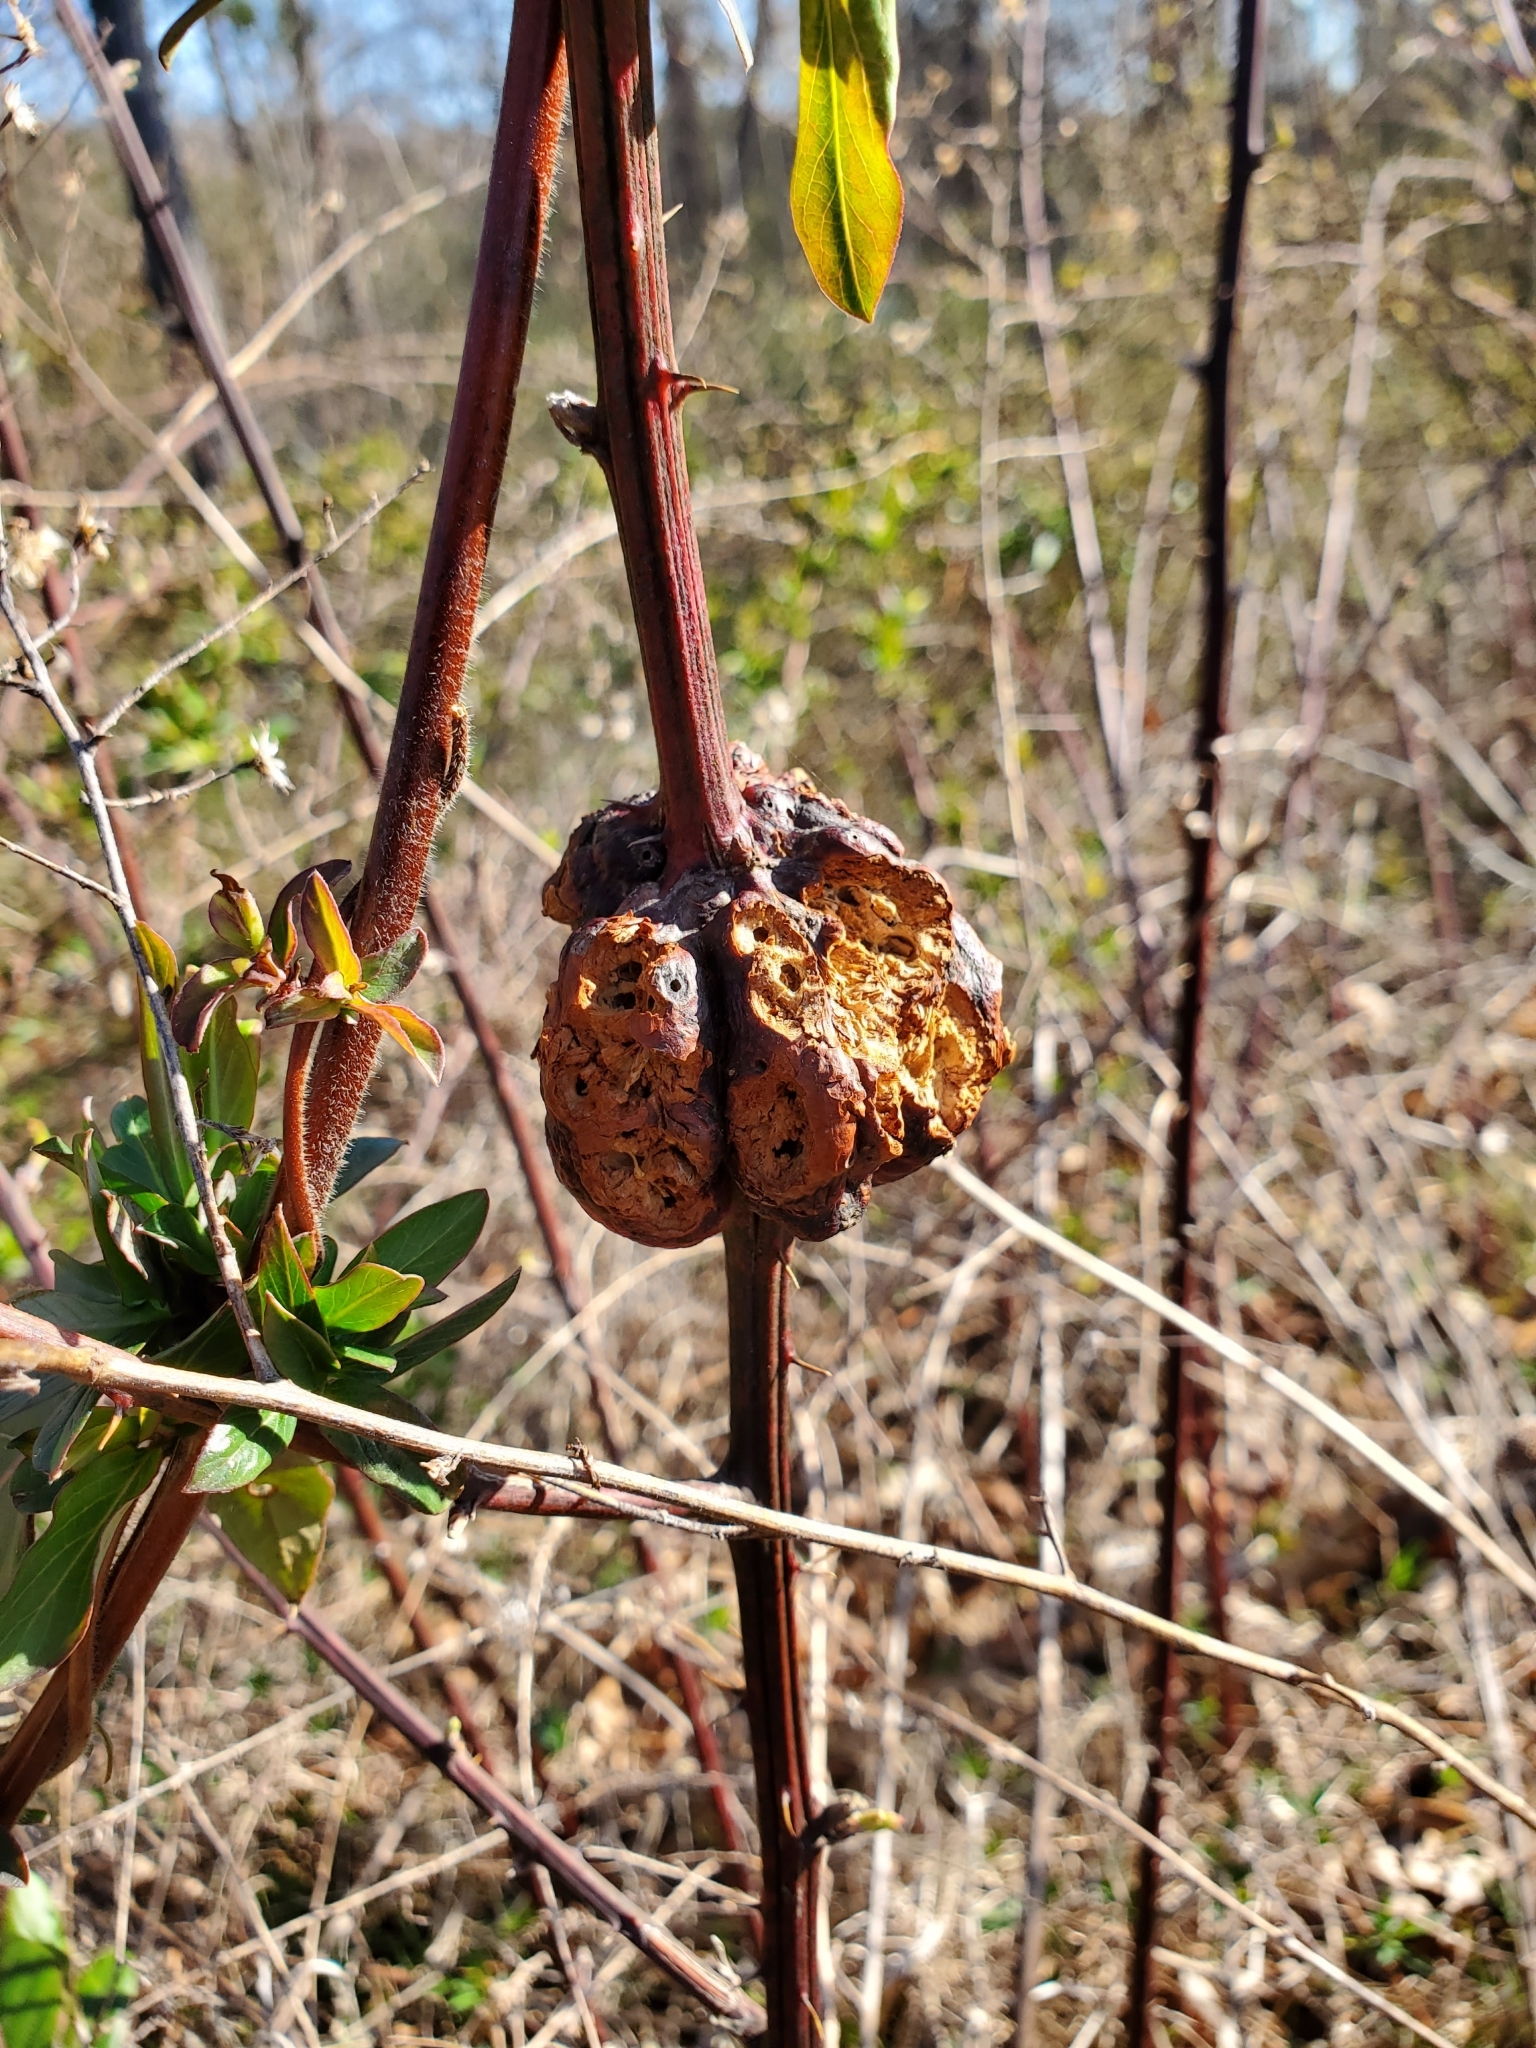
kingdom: Animalia
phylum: Arthropoda
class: Insecta
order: Hymenoptera
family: Cynipidae
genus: Diastrophus
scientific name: Diastrophus
